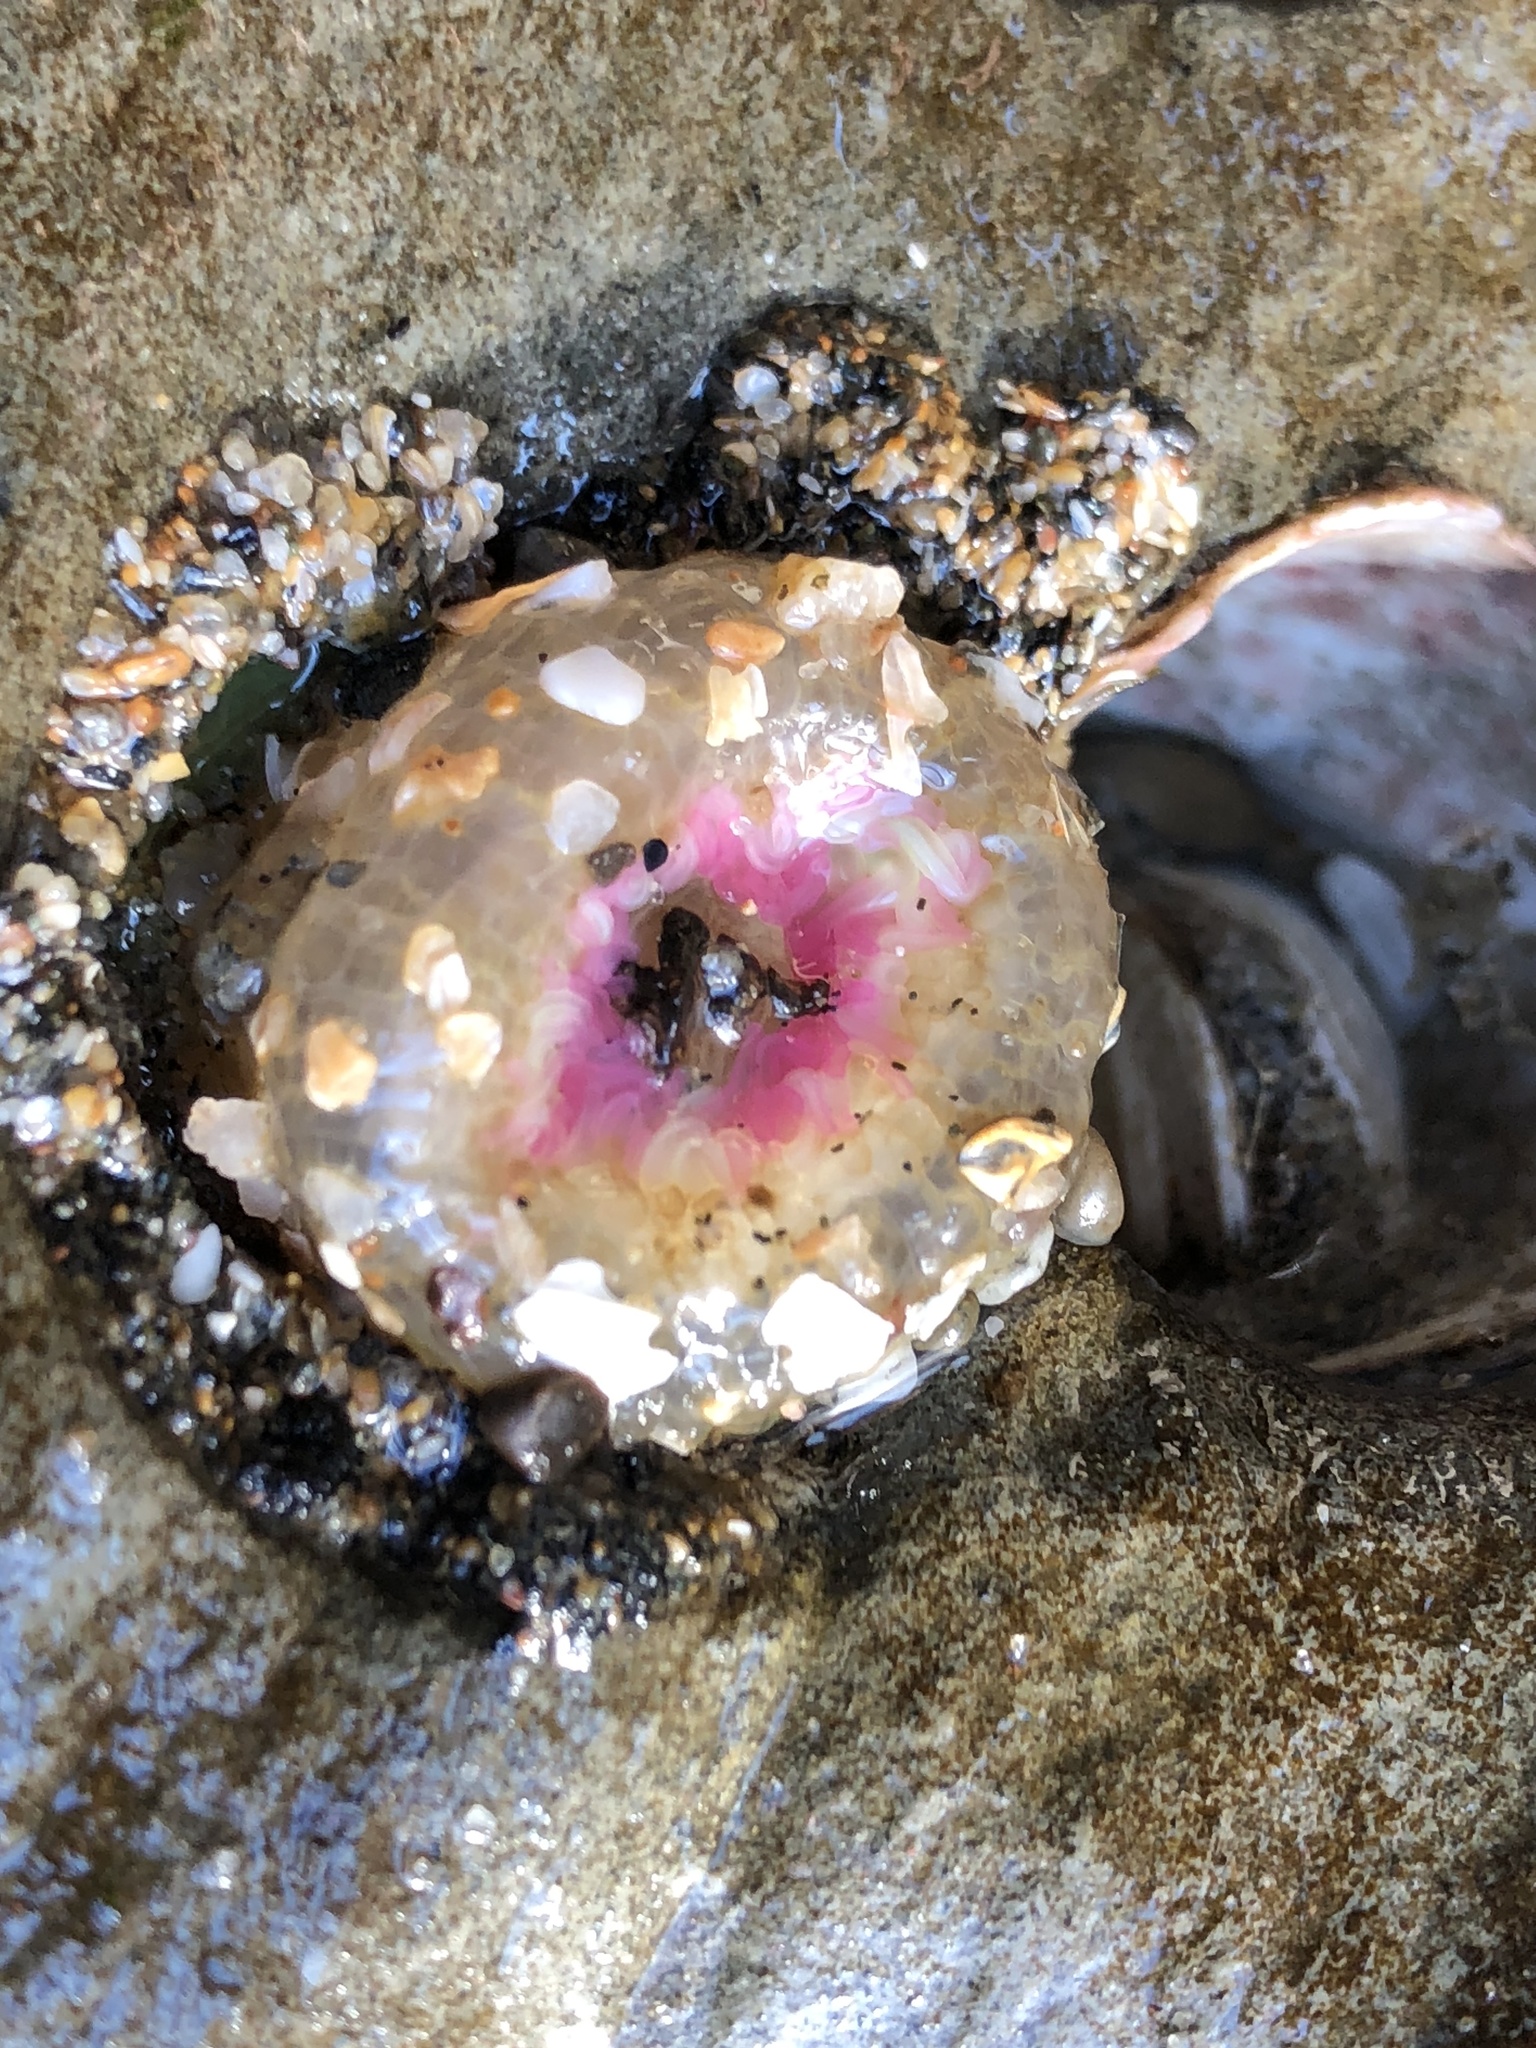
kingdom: Animalia
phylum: Cnidaria
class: Anthozoa
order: Actiniaria
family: Actiniidae
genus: Anthopleura
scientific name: Anthopleura elegantissima
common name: Clonal anemone
